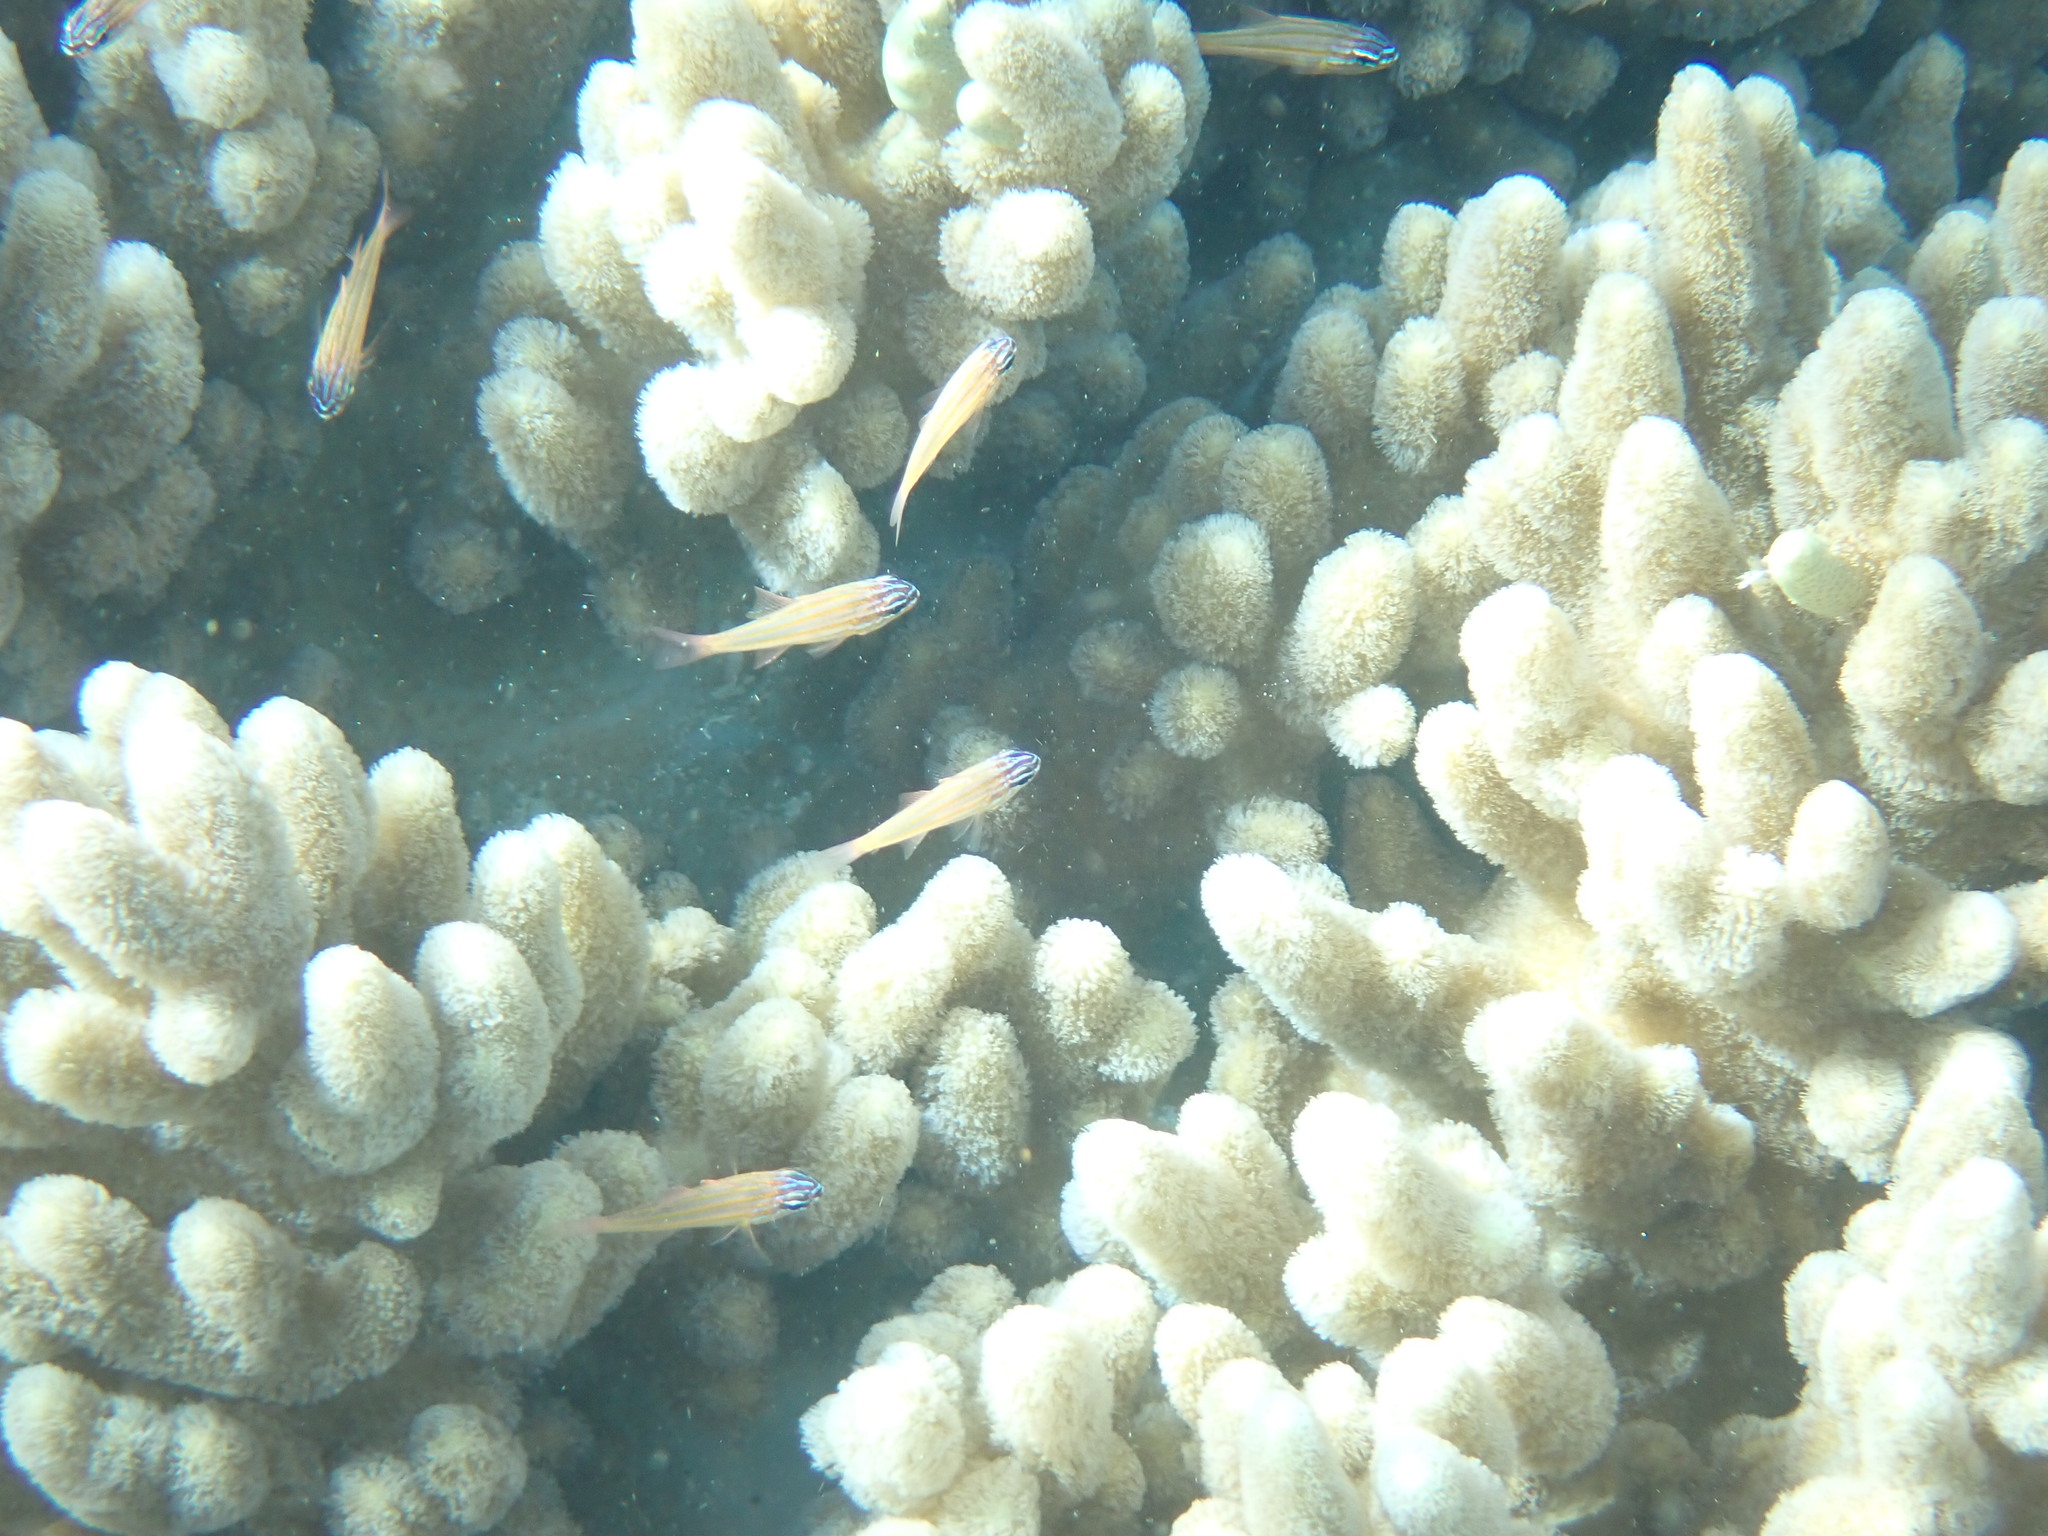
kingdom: Animalia
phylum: Chordata
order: Perciformes
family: Apogonidae
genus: Ostorhinchus
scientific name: Ostorhinchus cyanosoma
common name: Yellow-striped cardinalfish
